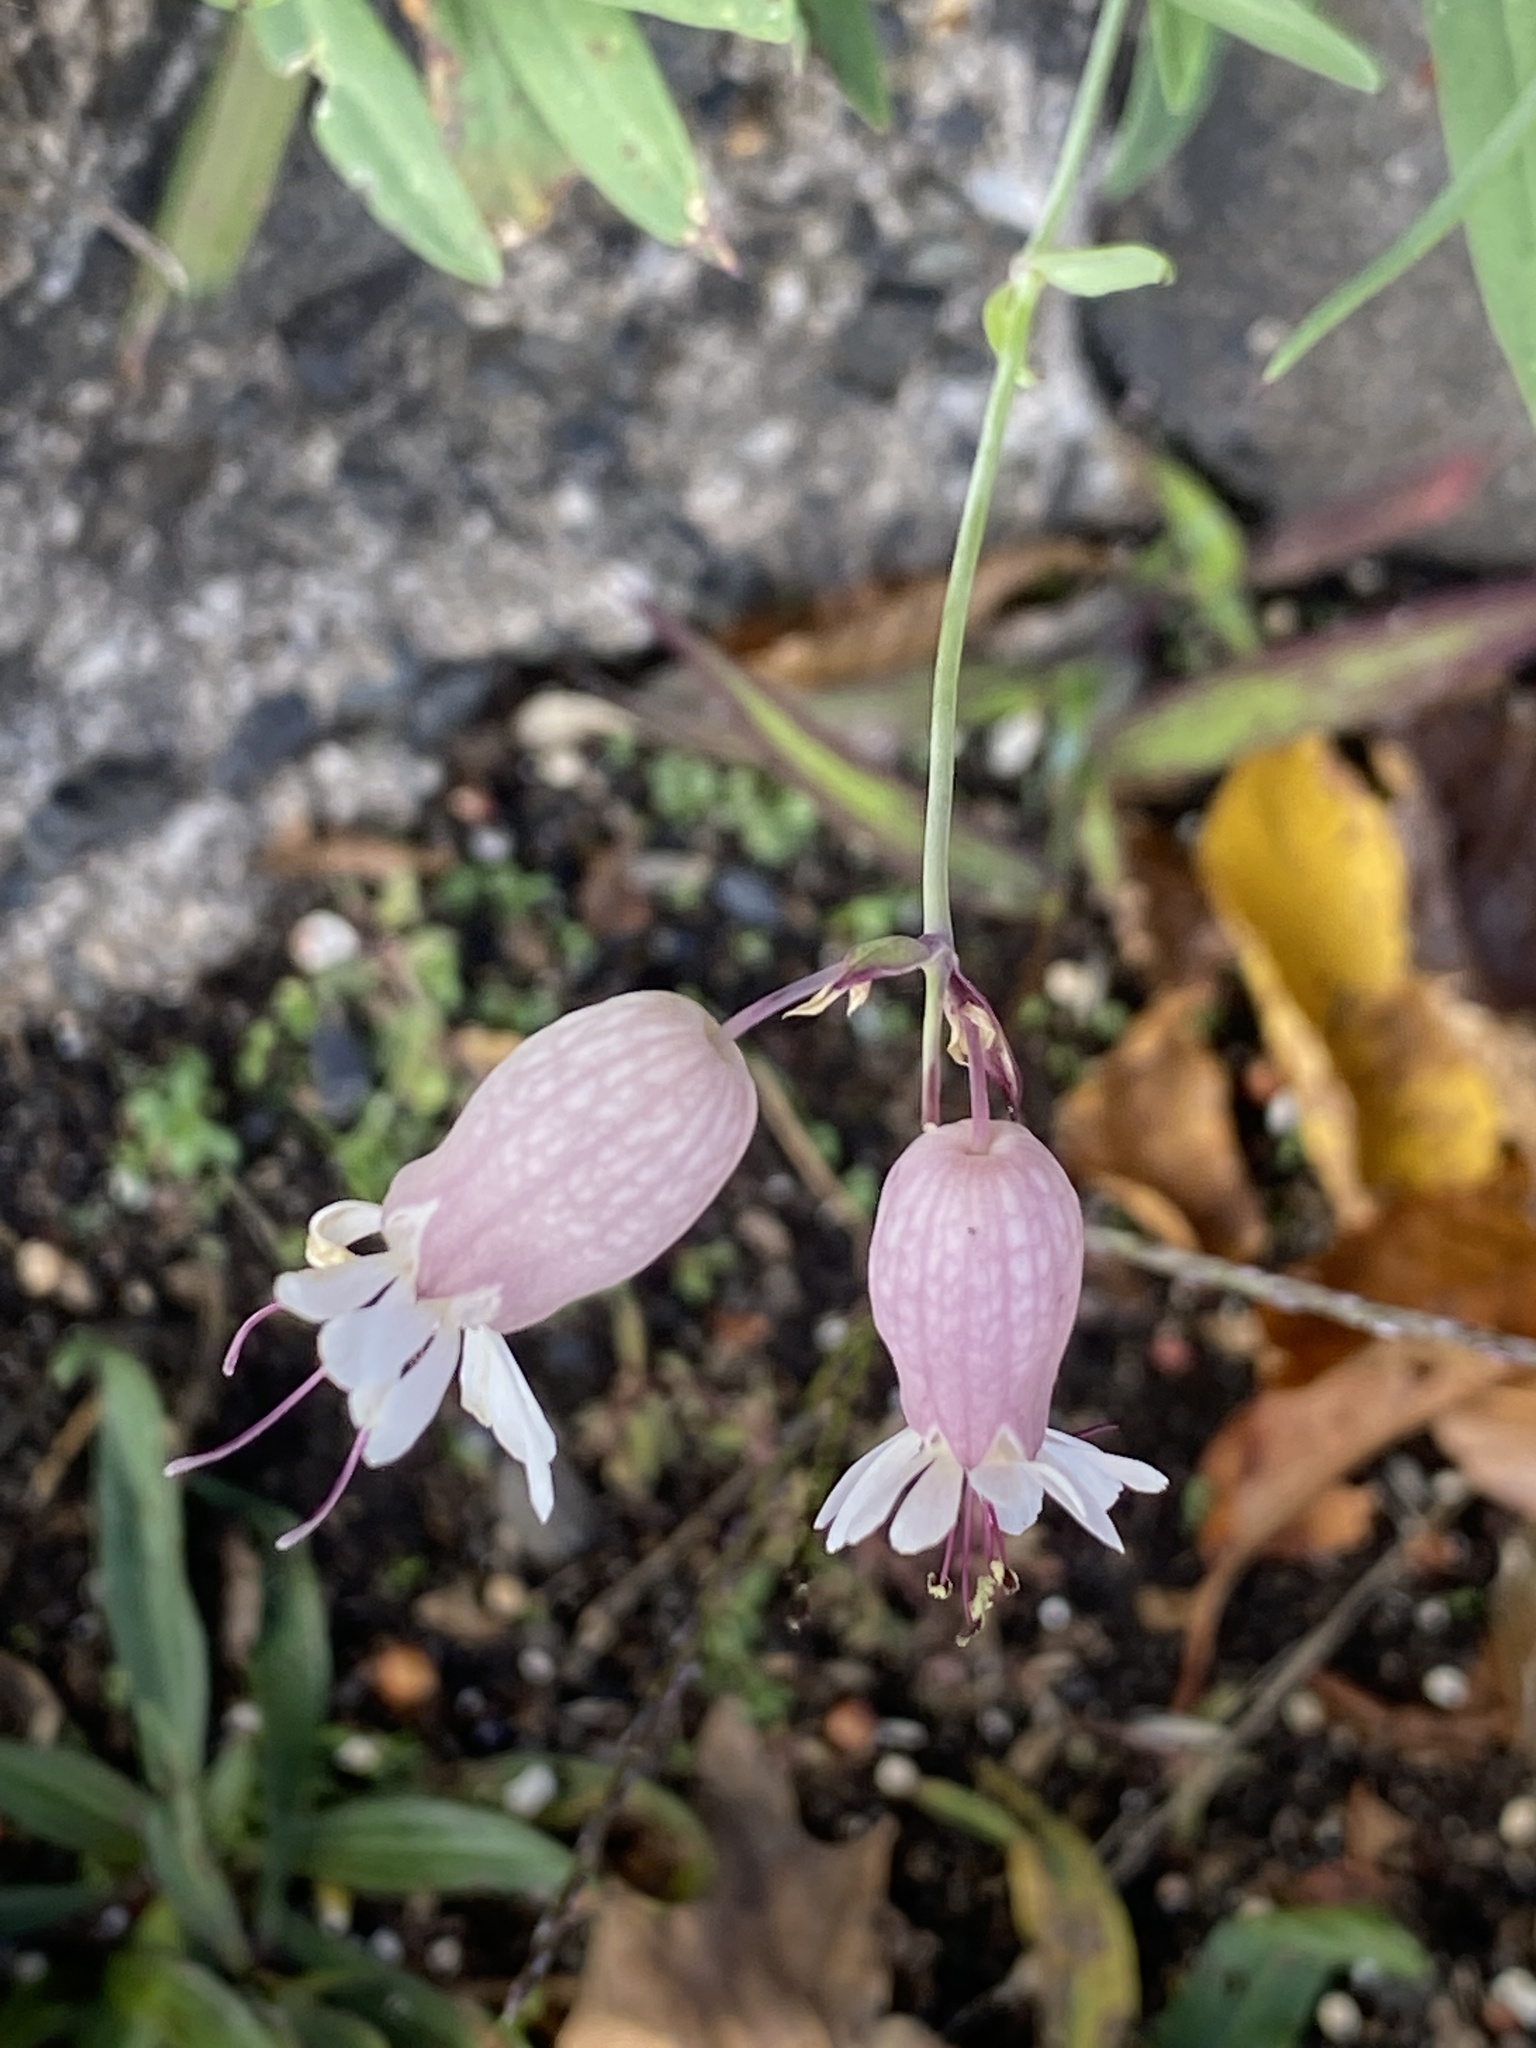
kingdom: Plantae
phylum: Tracheophyta
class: Magnoliopsida
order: Caryophyllales
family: Caryophyllaceae
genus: Silene
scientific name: Silene vulgaris
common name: Bladder campion
